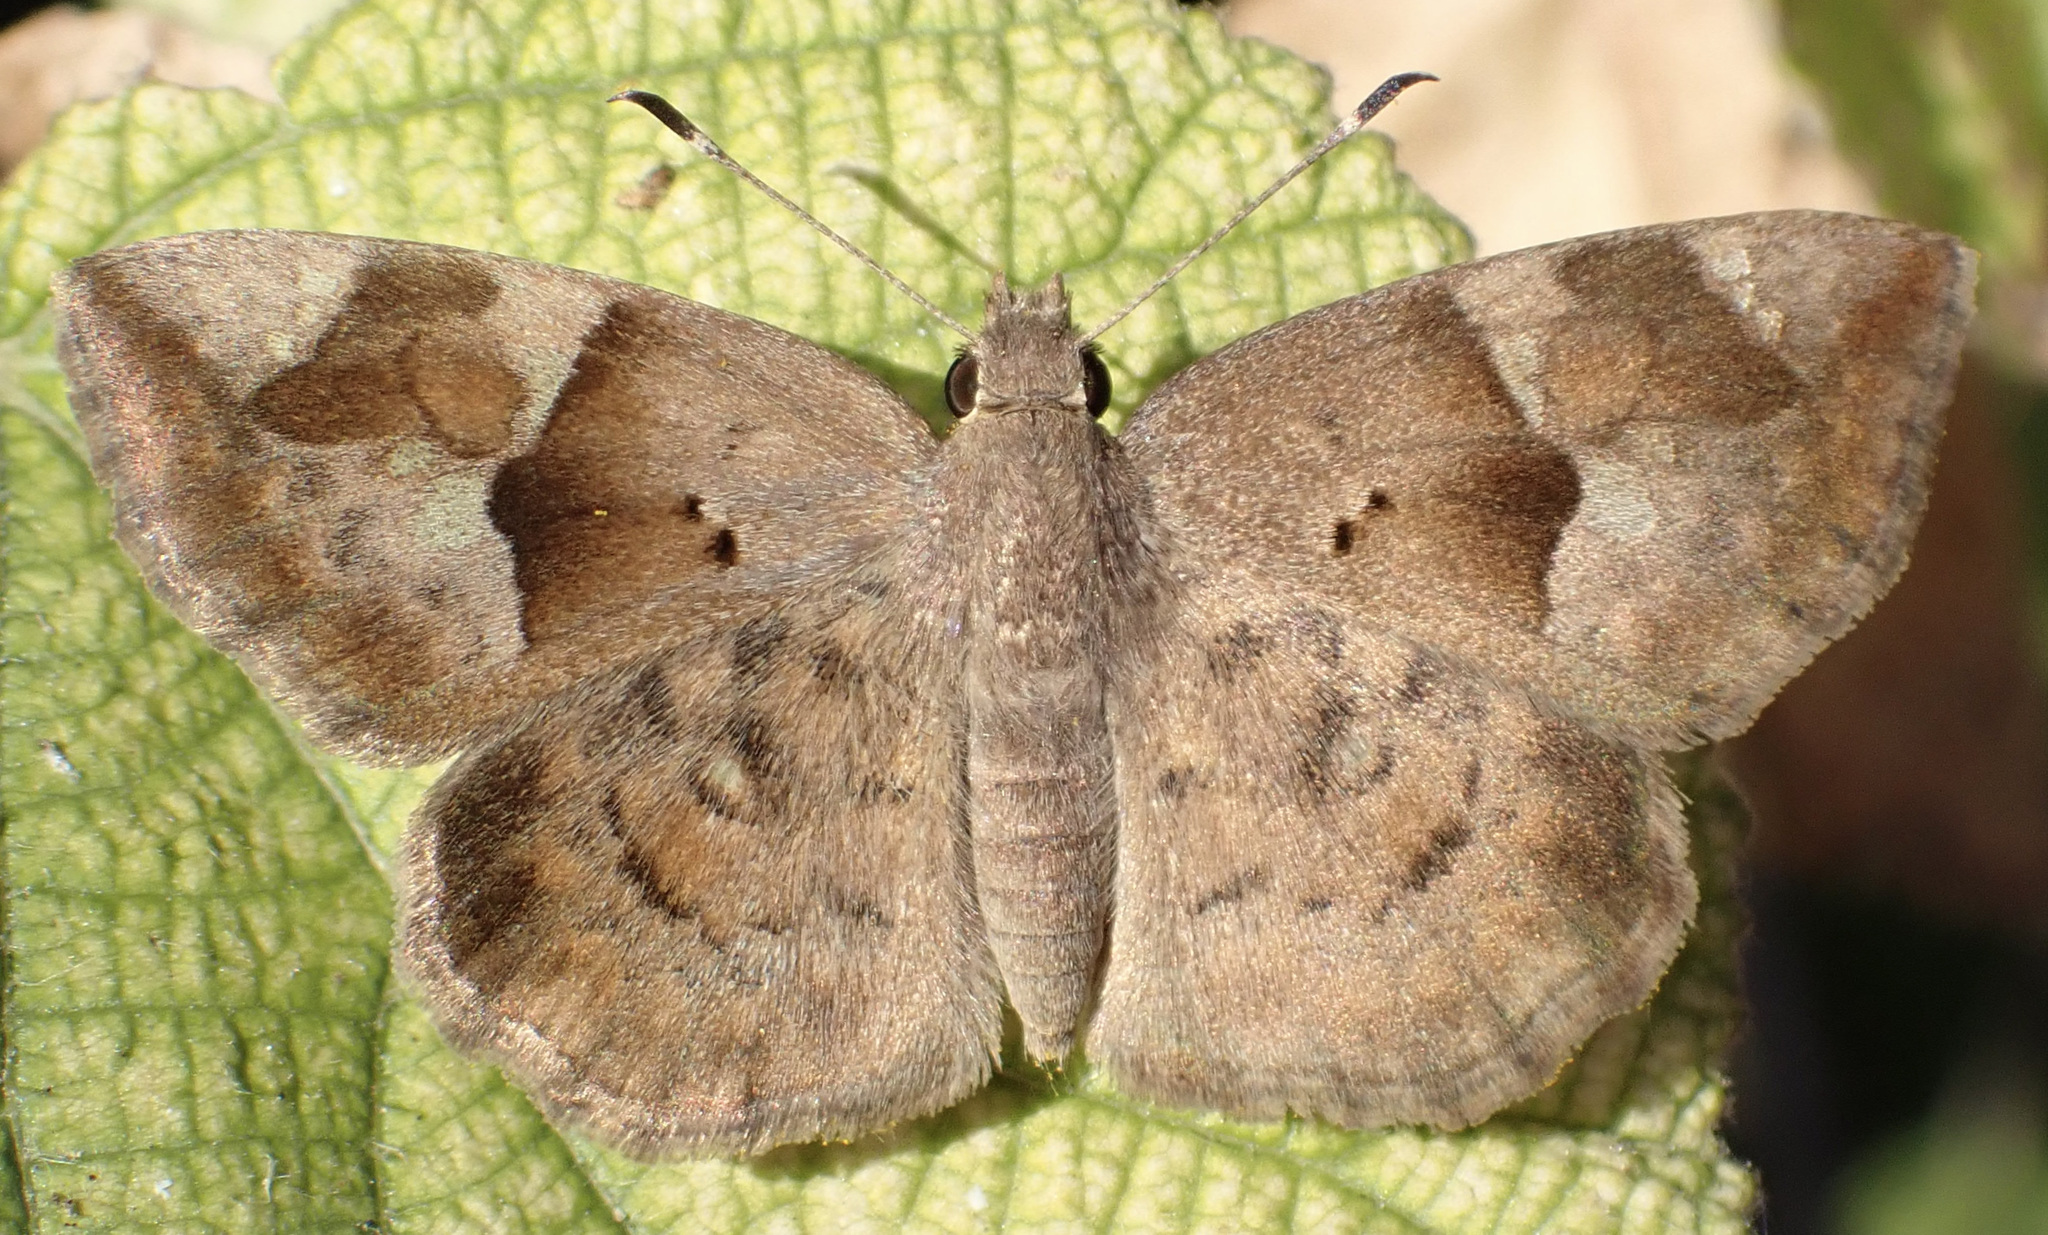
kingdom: Animalia
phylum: Arthropoda
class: Insecta
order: Lepidoptera
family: Hesperiidae
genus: Sarangesa
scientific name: Sarangesa motozi
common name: Forest elfin
